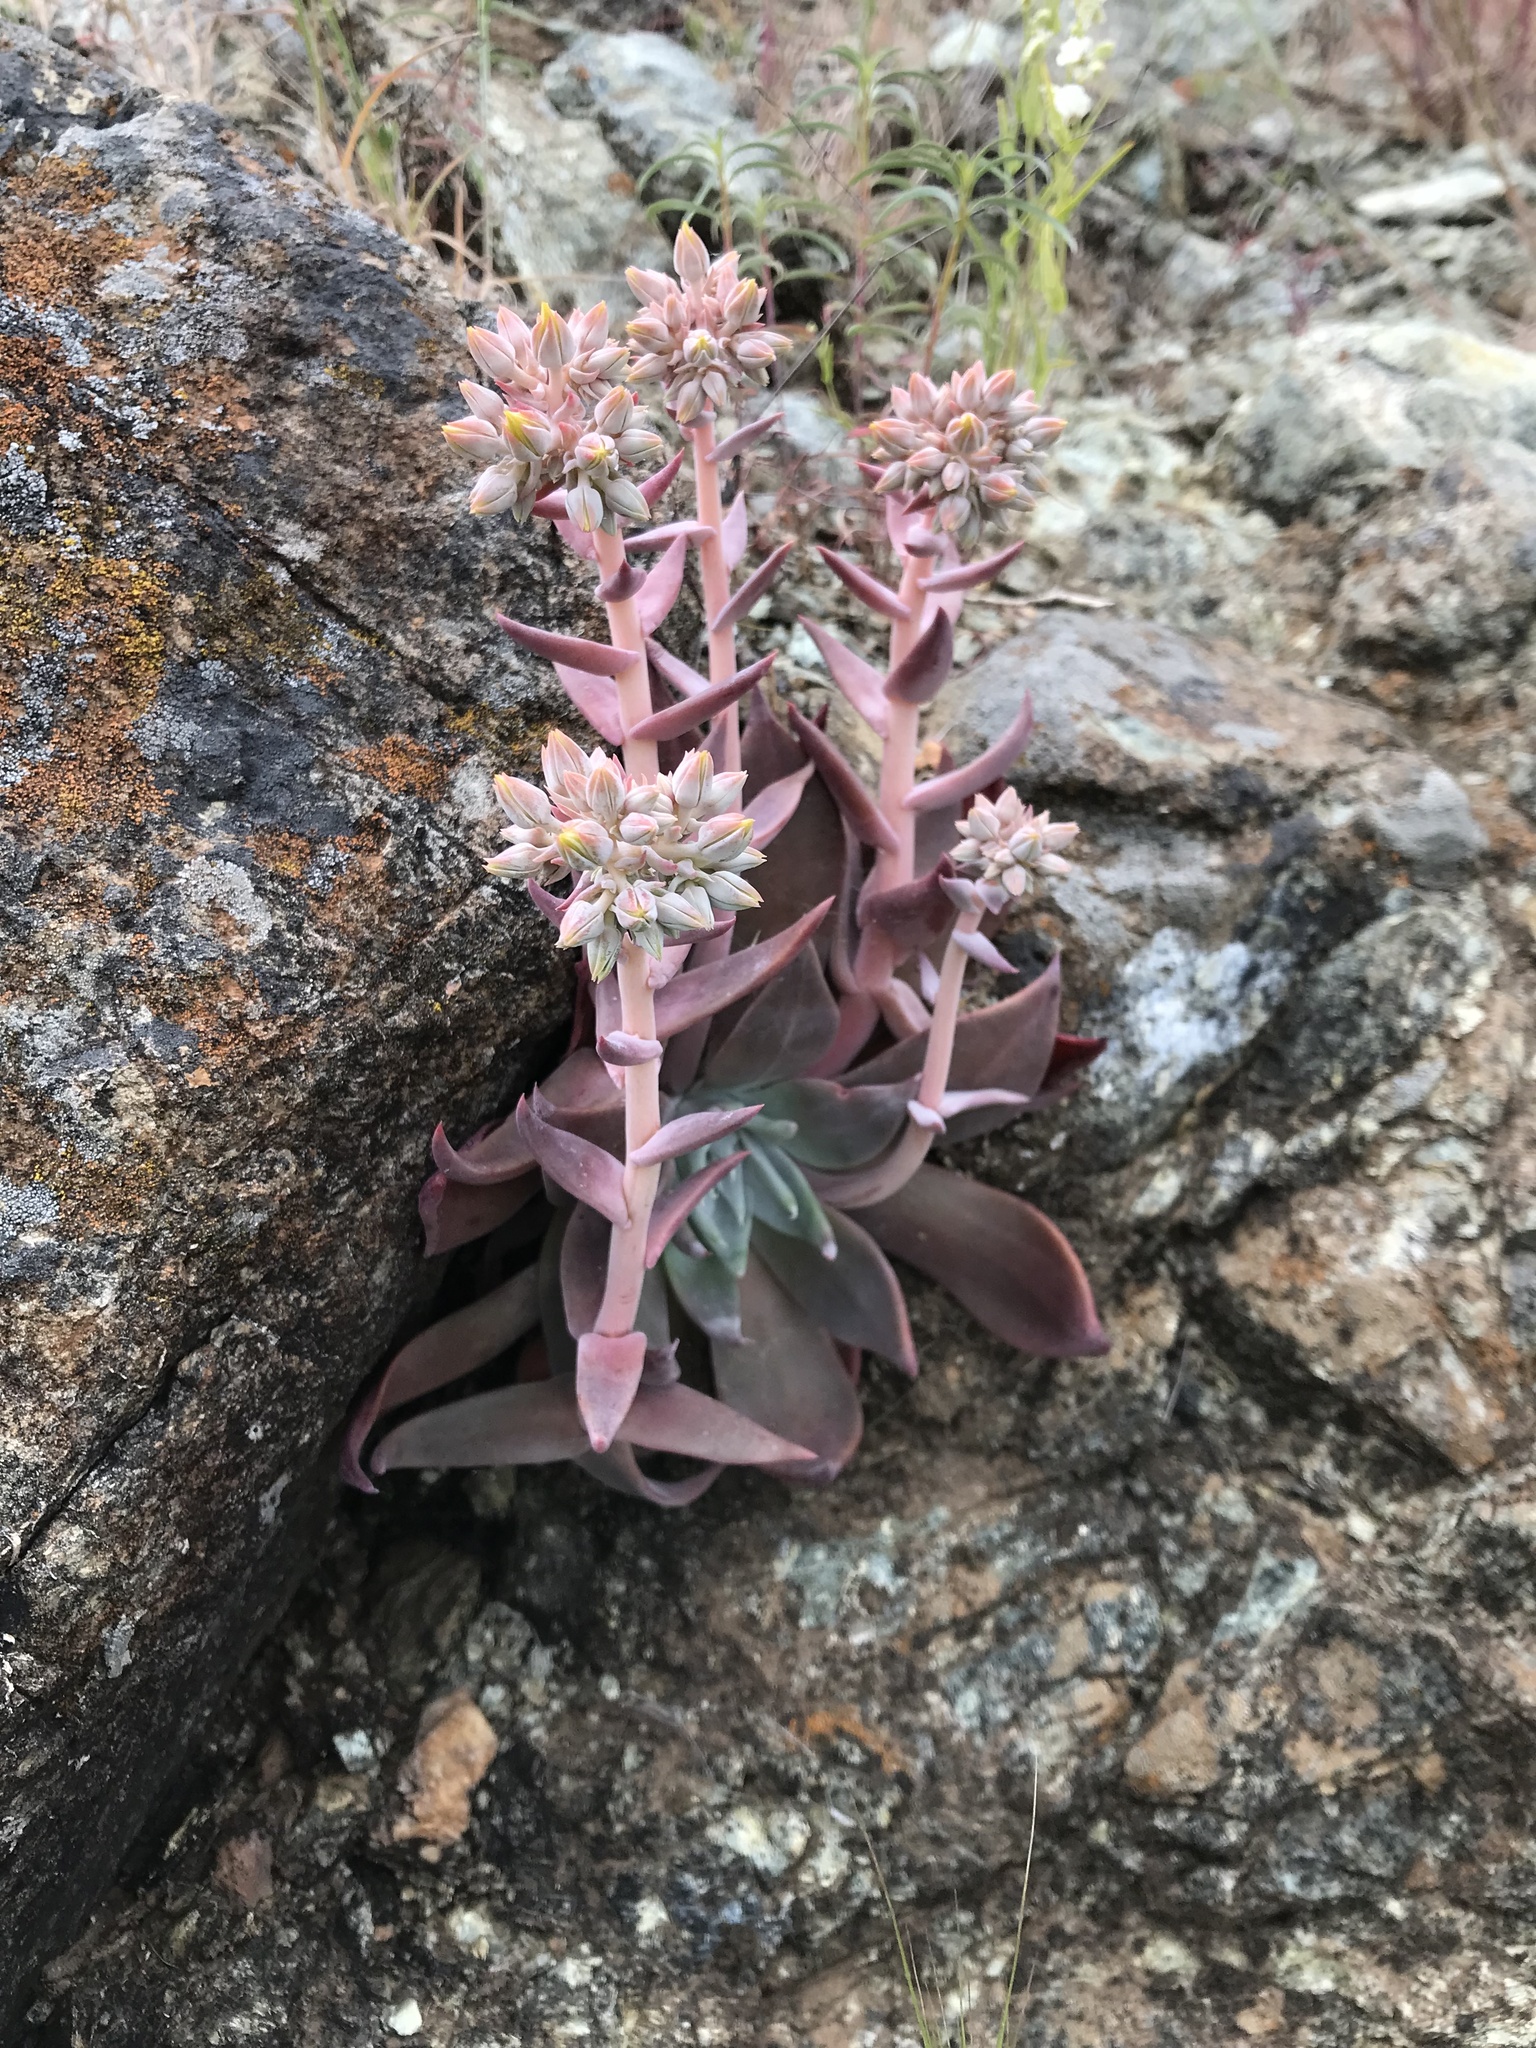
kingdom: Plantae
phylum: Tracheophyta
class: Magnoliopsida
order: Saxifragales
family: Crassulaceae
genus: Dudleya
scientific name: Dudleya cymosa
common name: Canyon dudleya
